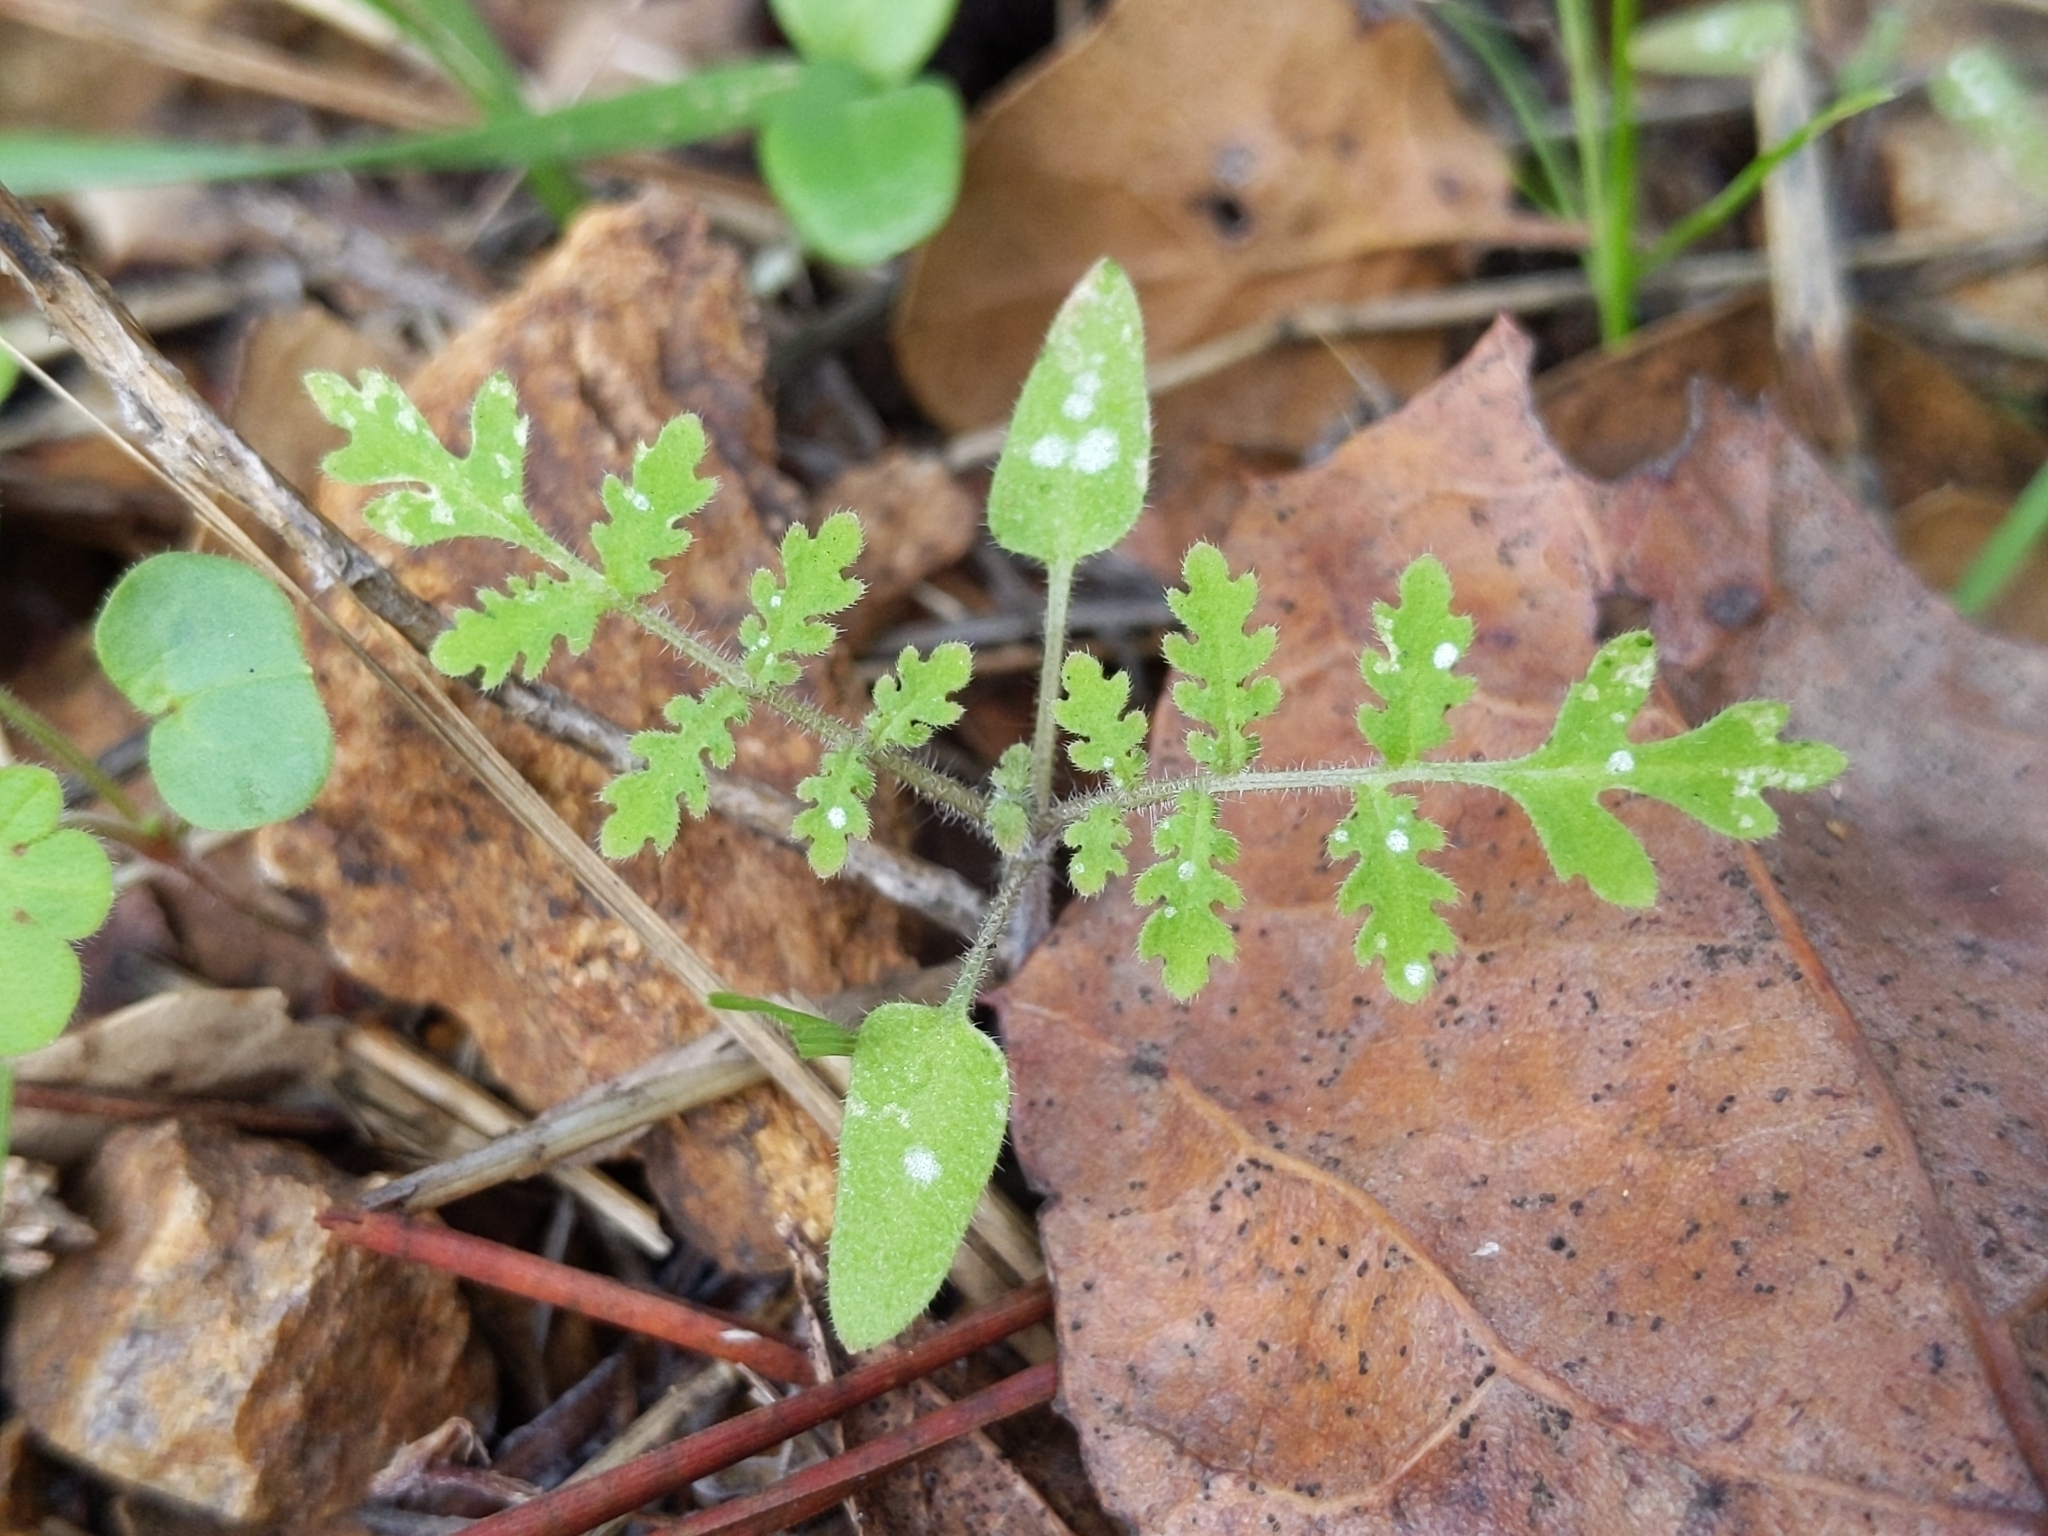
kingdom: Plantae
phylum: Tracheophyta
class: Magnoliopsida
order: Boraginales
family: Hydrophyllaceae
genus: Phacelia
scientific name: Phacelia distans
